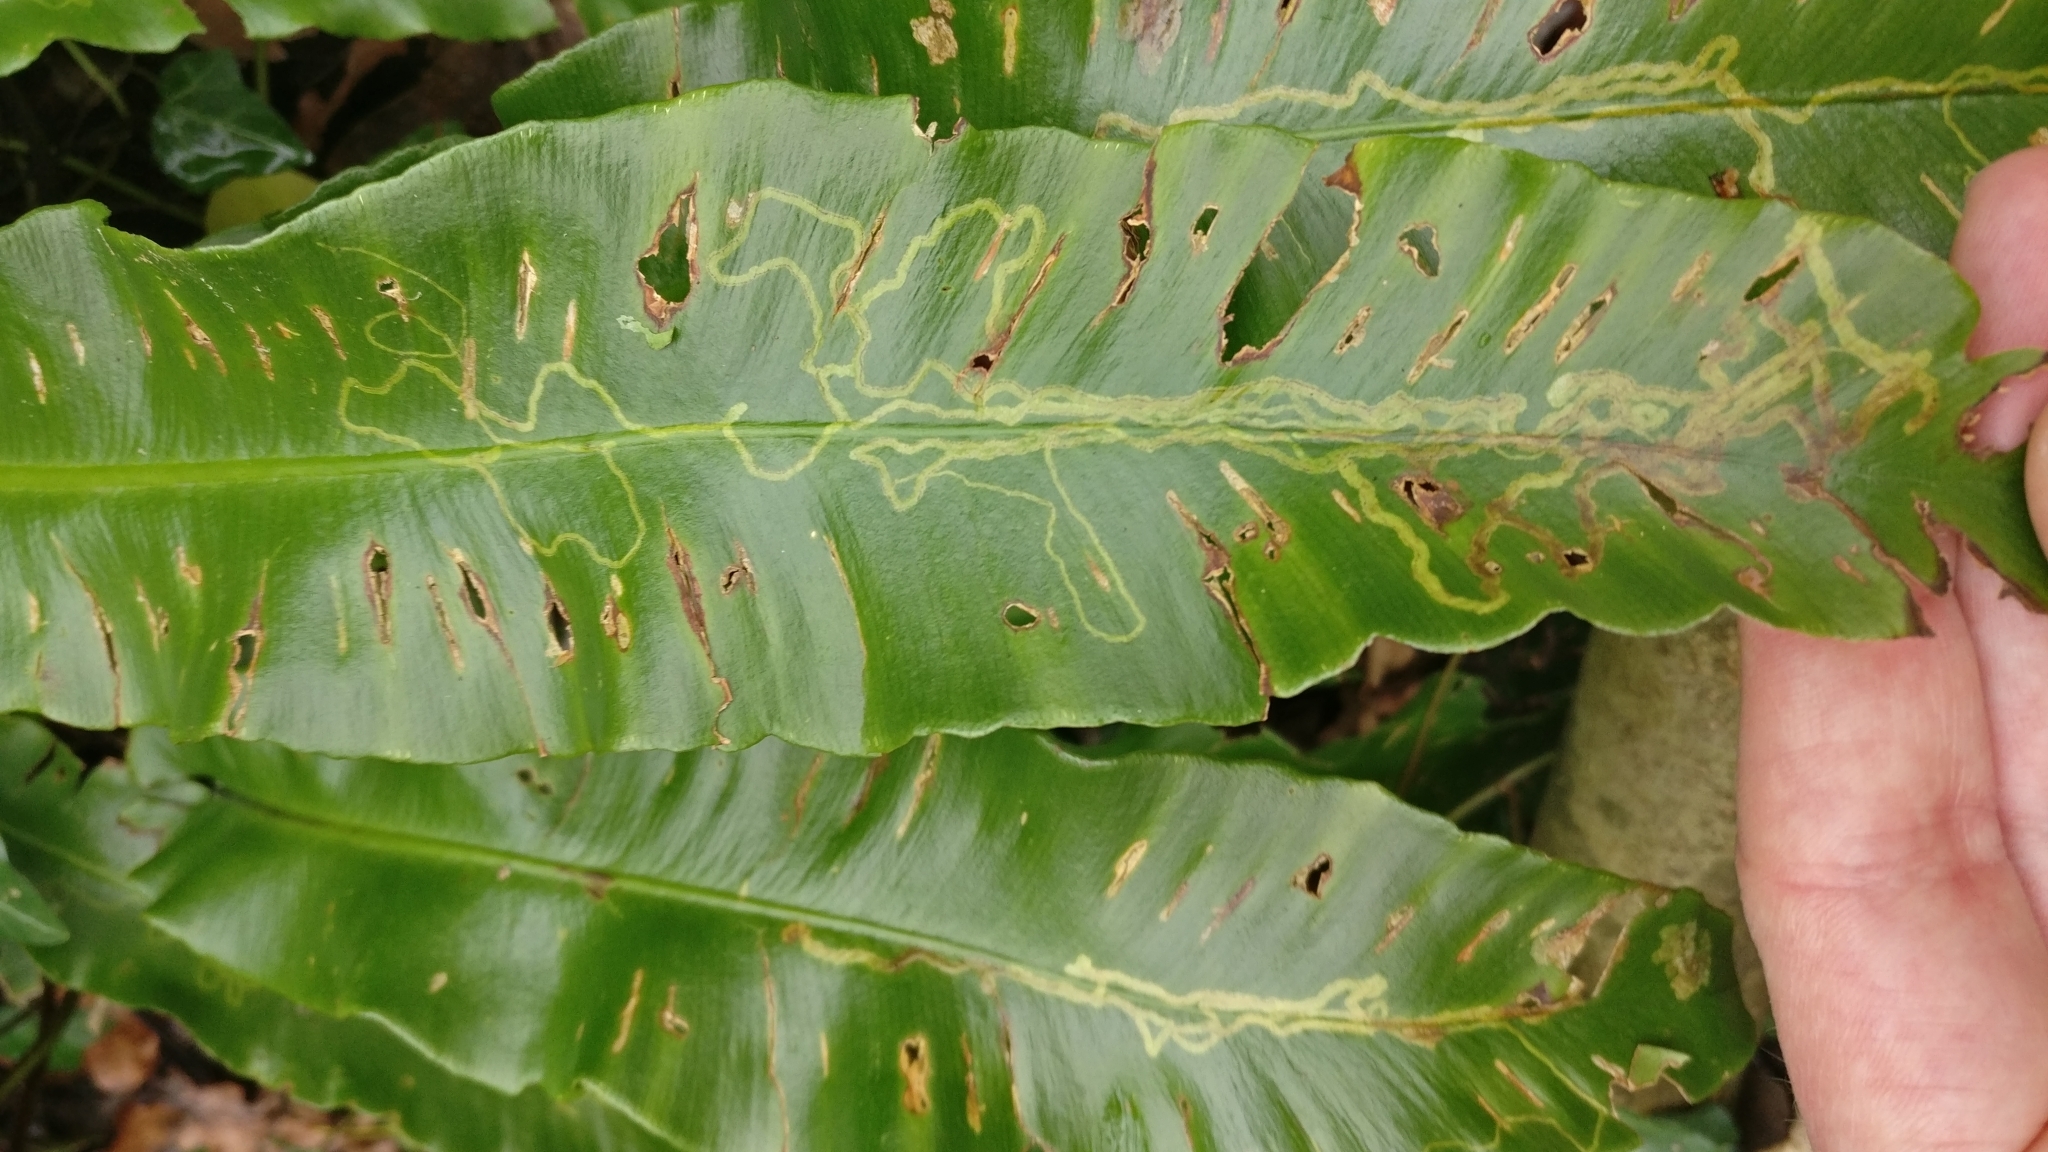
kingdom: Animalia
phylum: Arthropoda
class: Insecta
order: Diptera
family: Agromyzidae
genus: Phytomyza
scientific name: Phytomyza scolopendri
